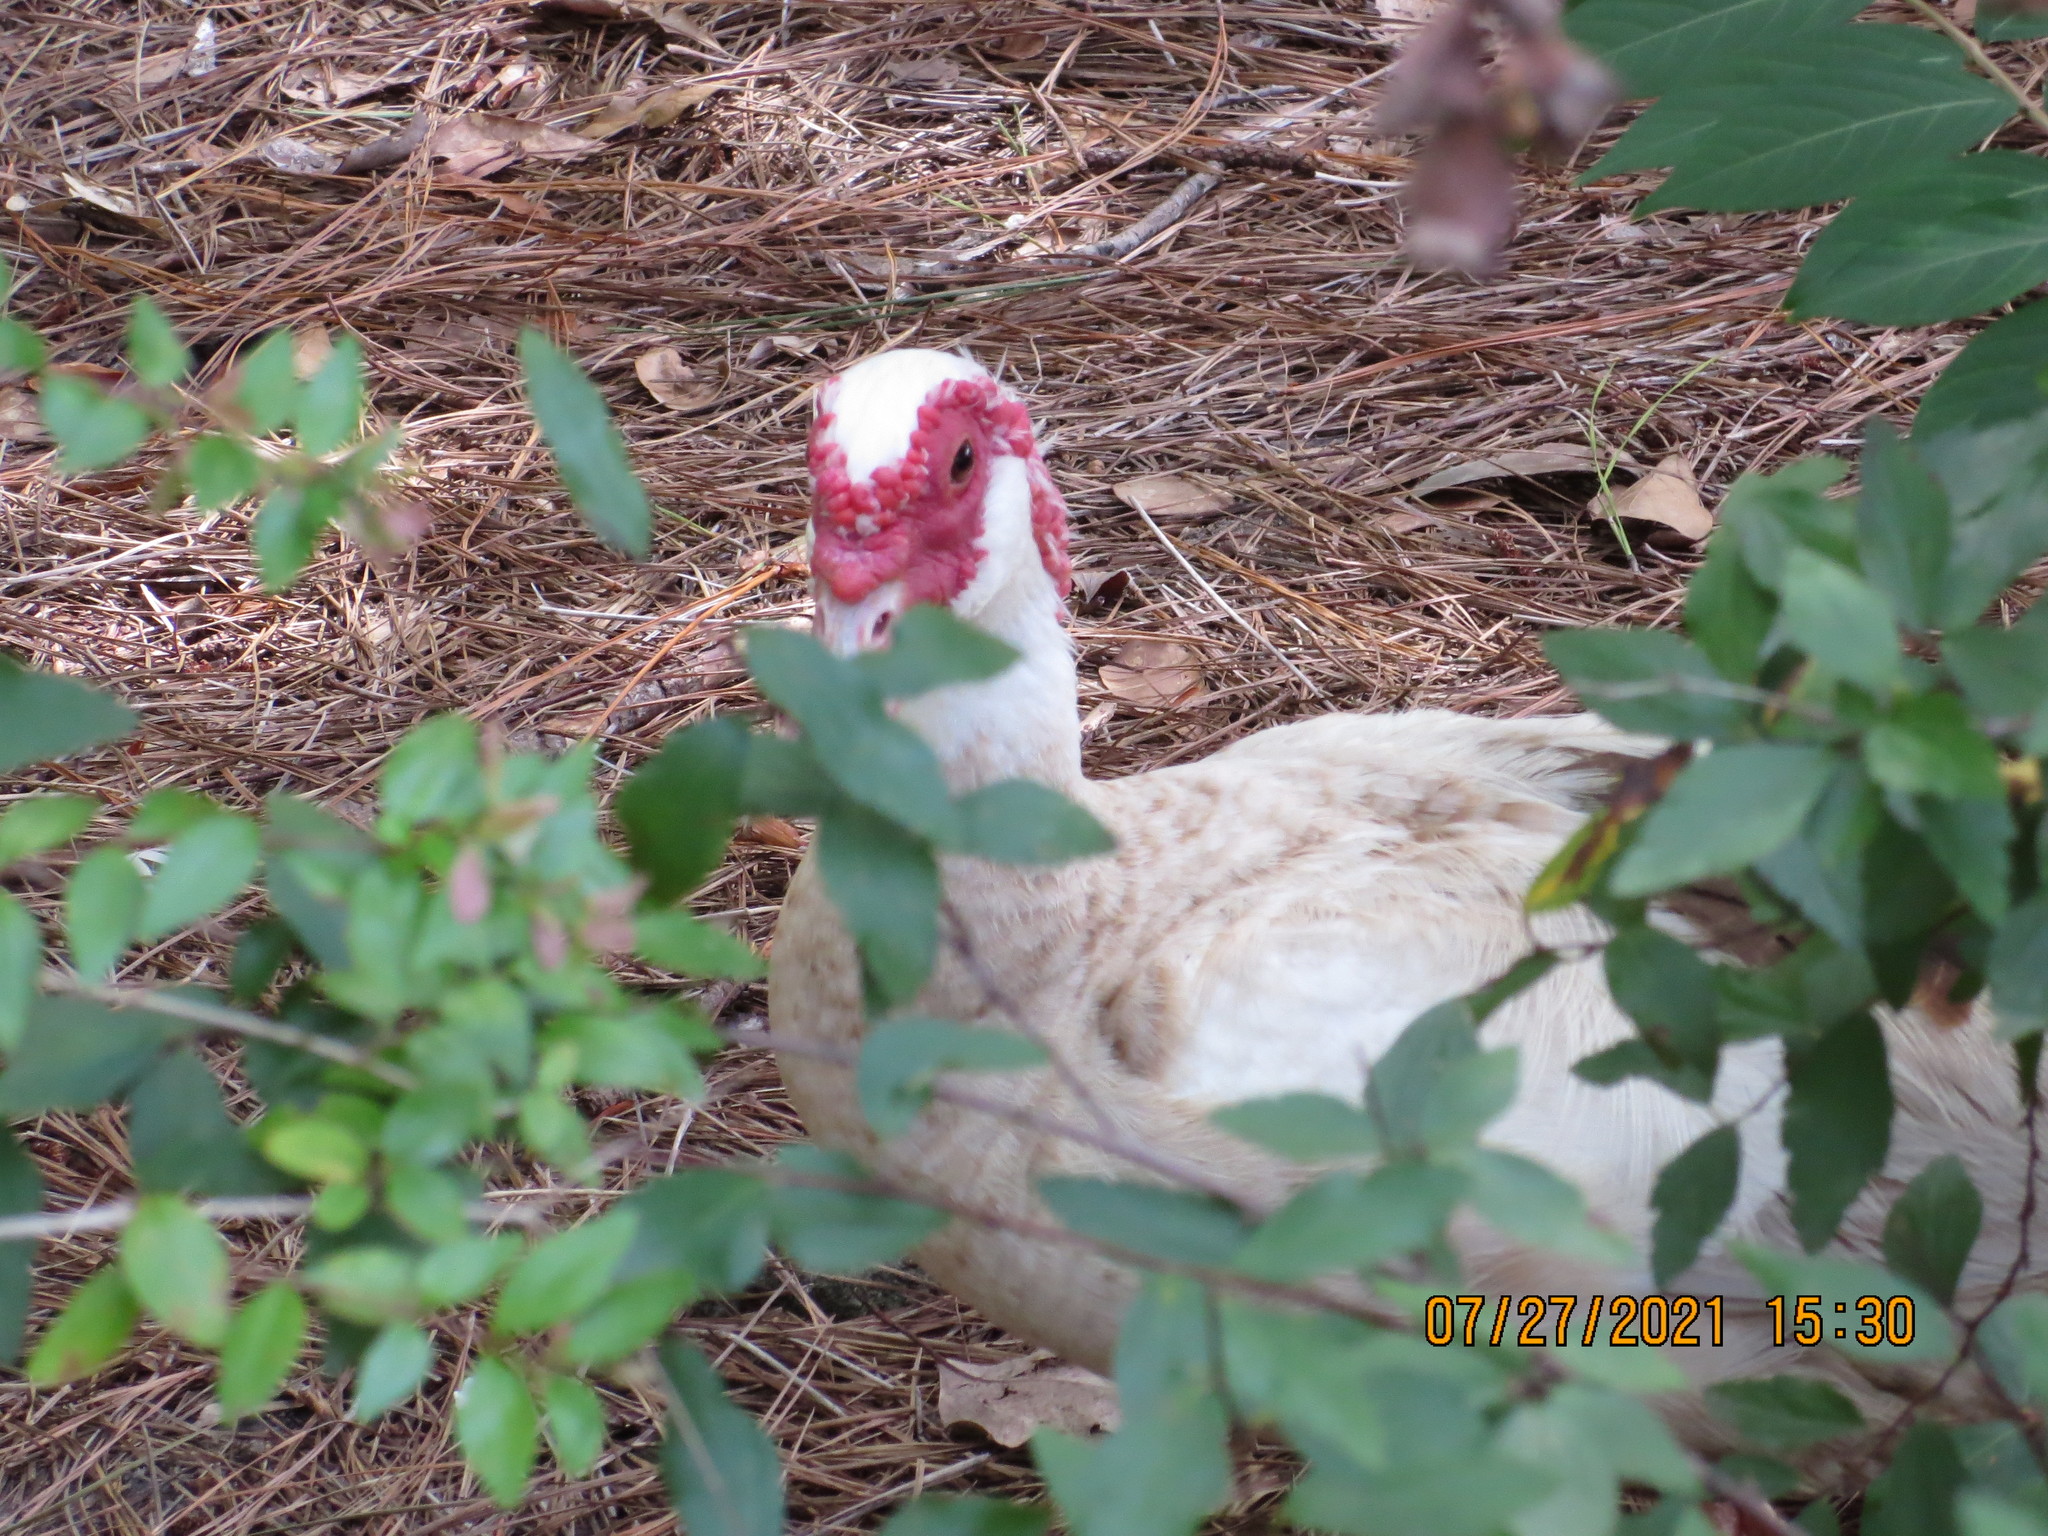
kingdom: Animalia
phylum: Chordata
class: Aves
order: Anseriformes
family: Anatidae
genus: Cairina
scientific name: Cairina moschata
